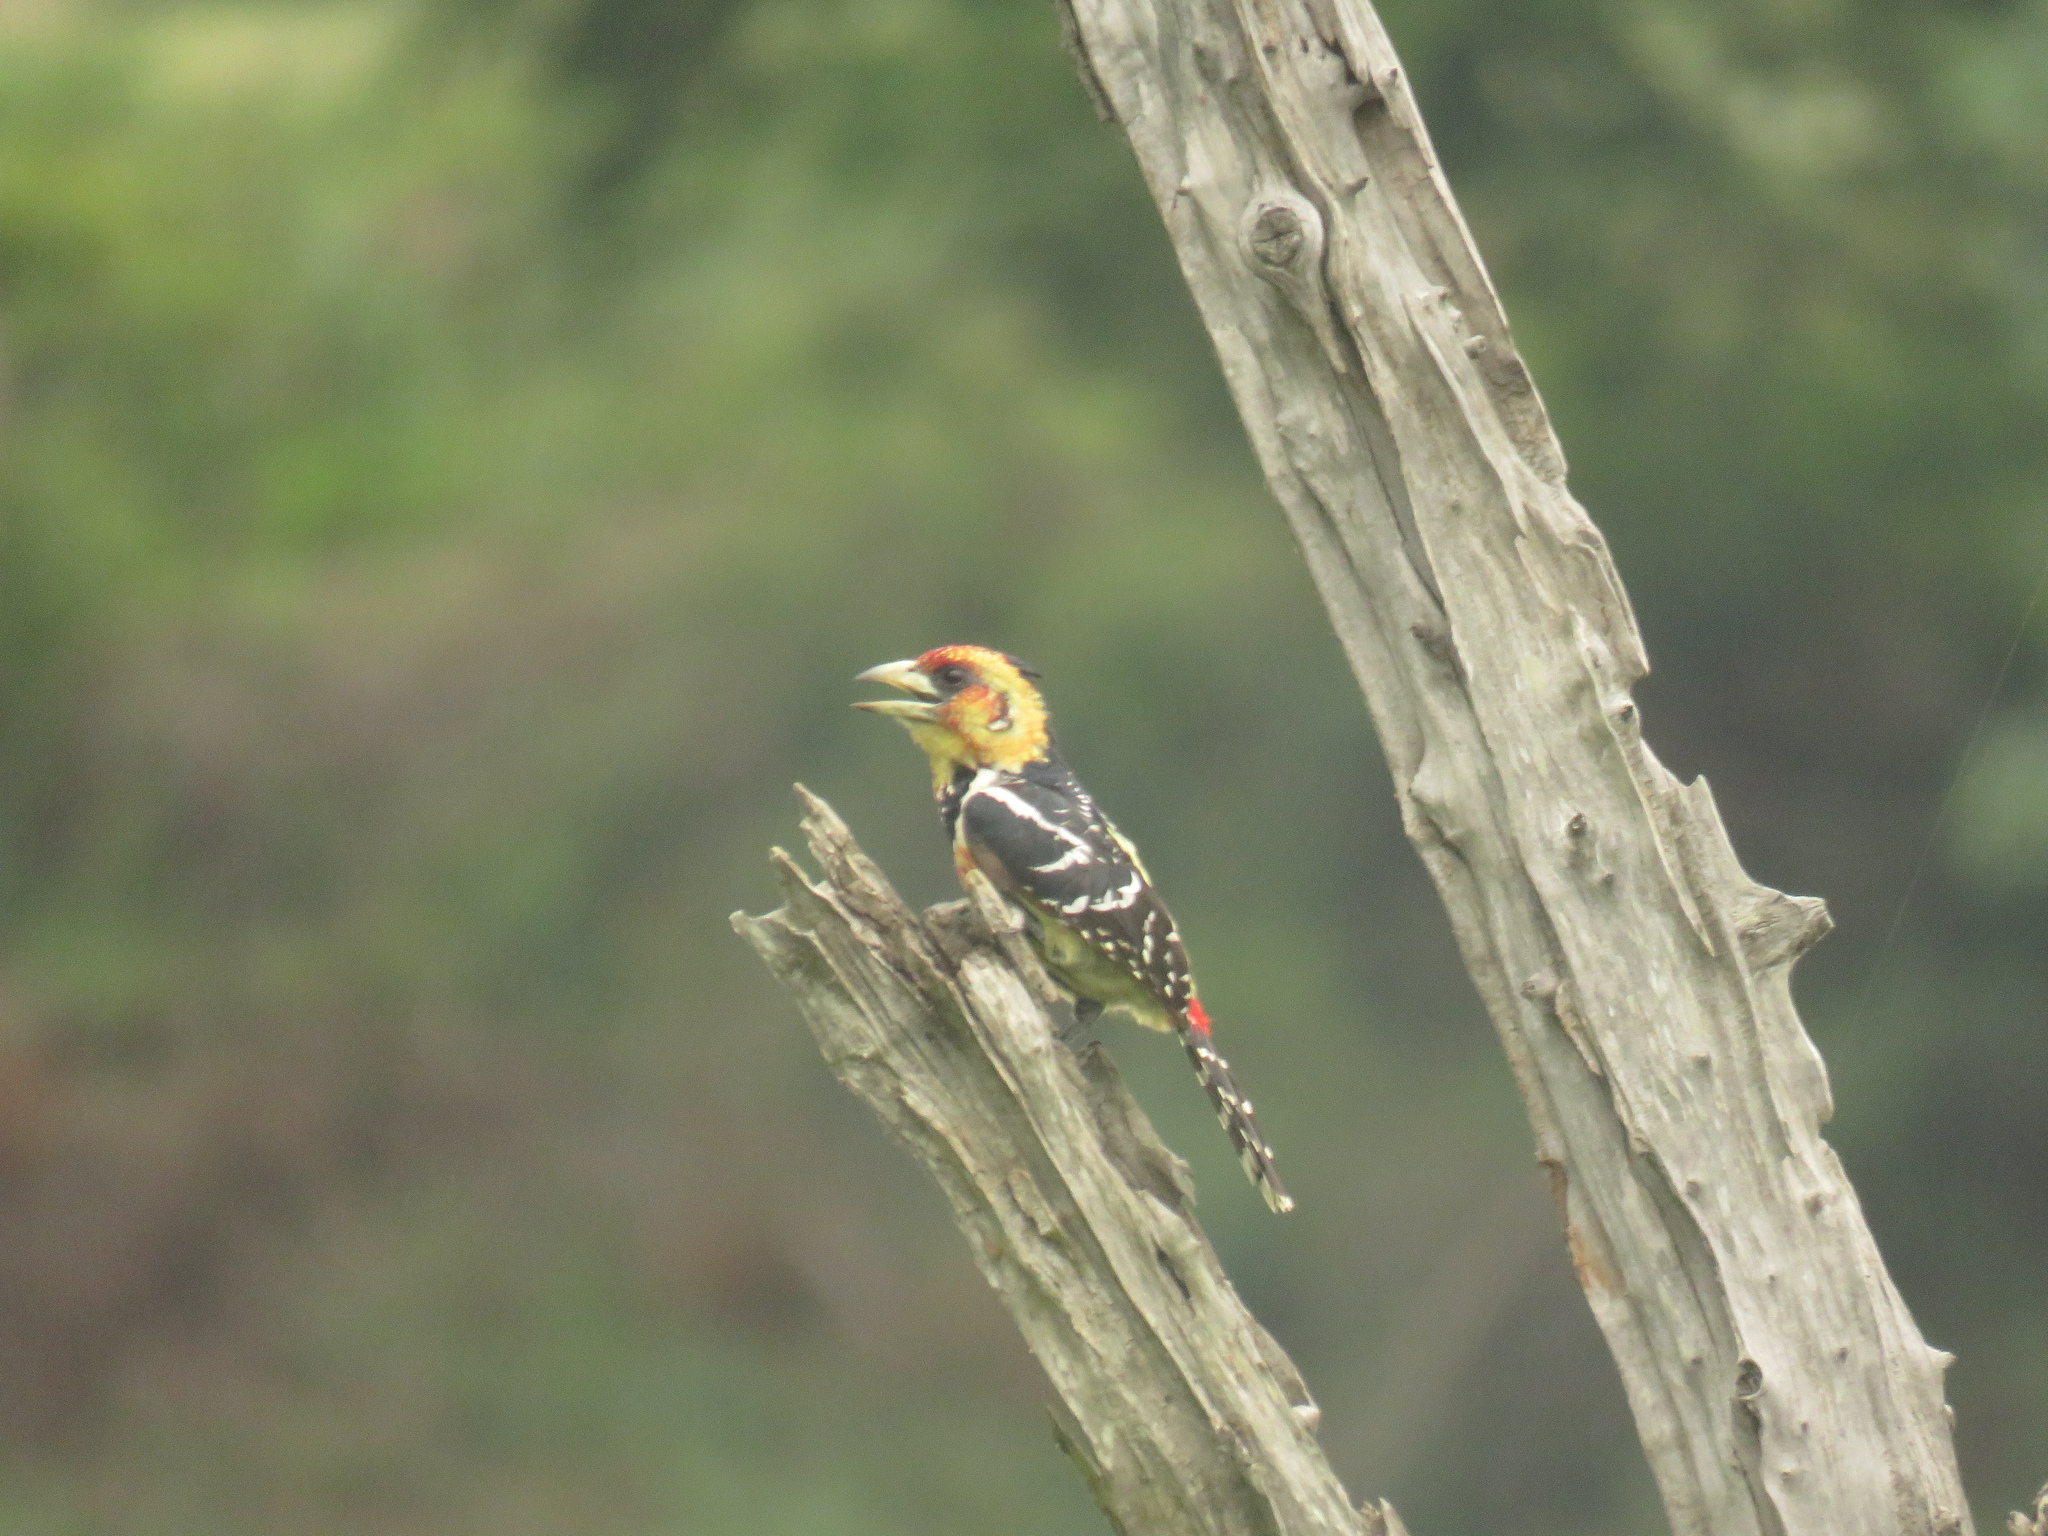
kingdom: Animalia
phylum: Chordata
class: Aves
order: Piciformes
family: Lybiidae
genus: Trachyphonus
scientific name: Trachyphonus vaillantii
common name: Crested barbet
